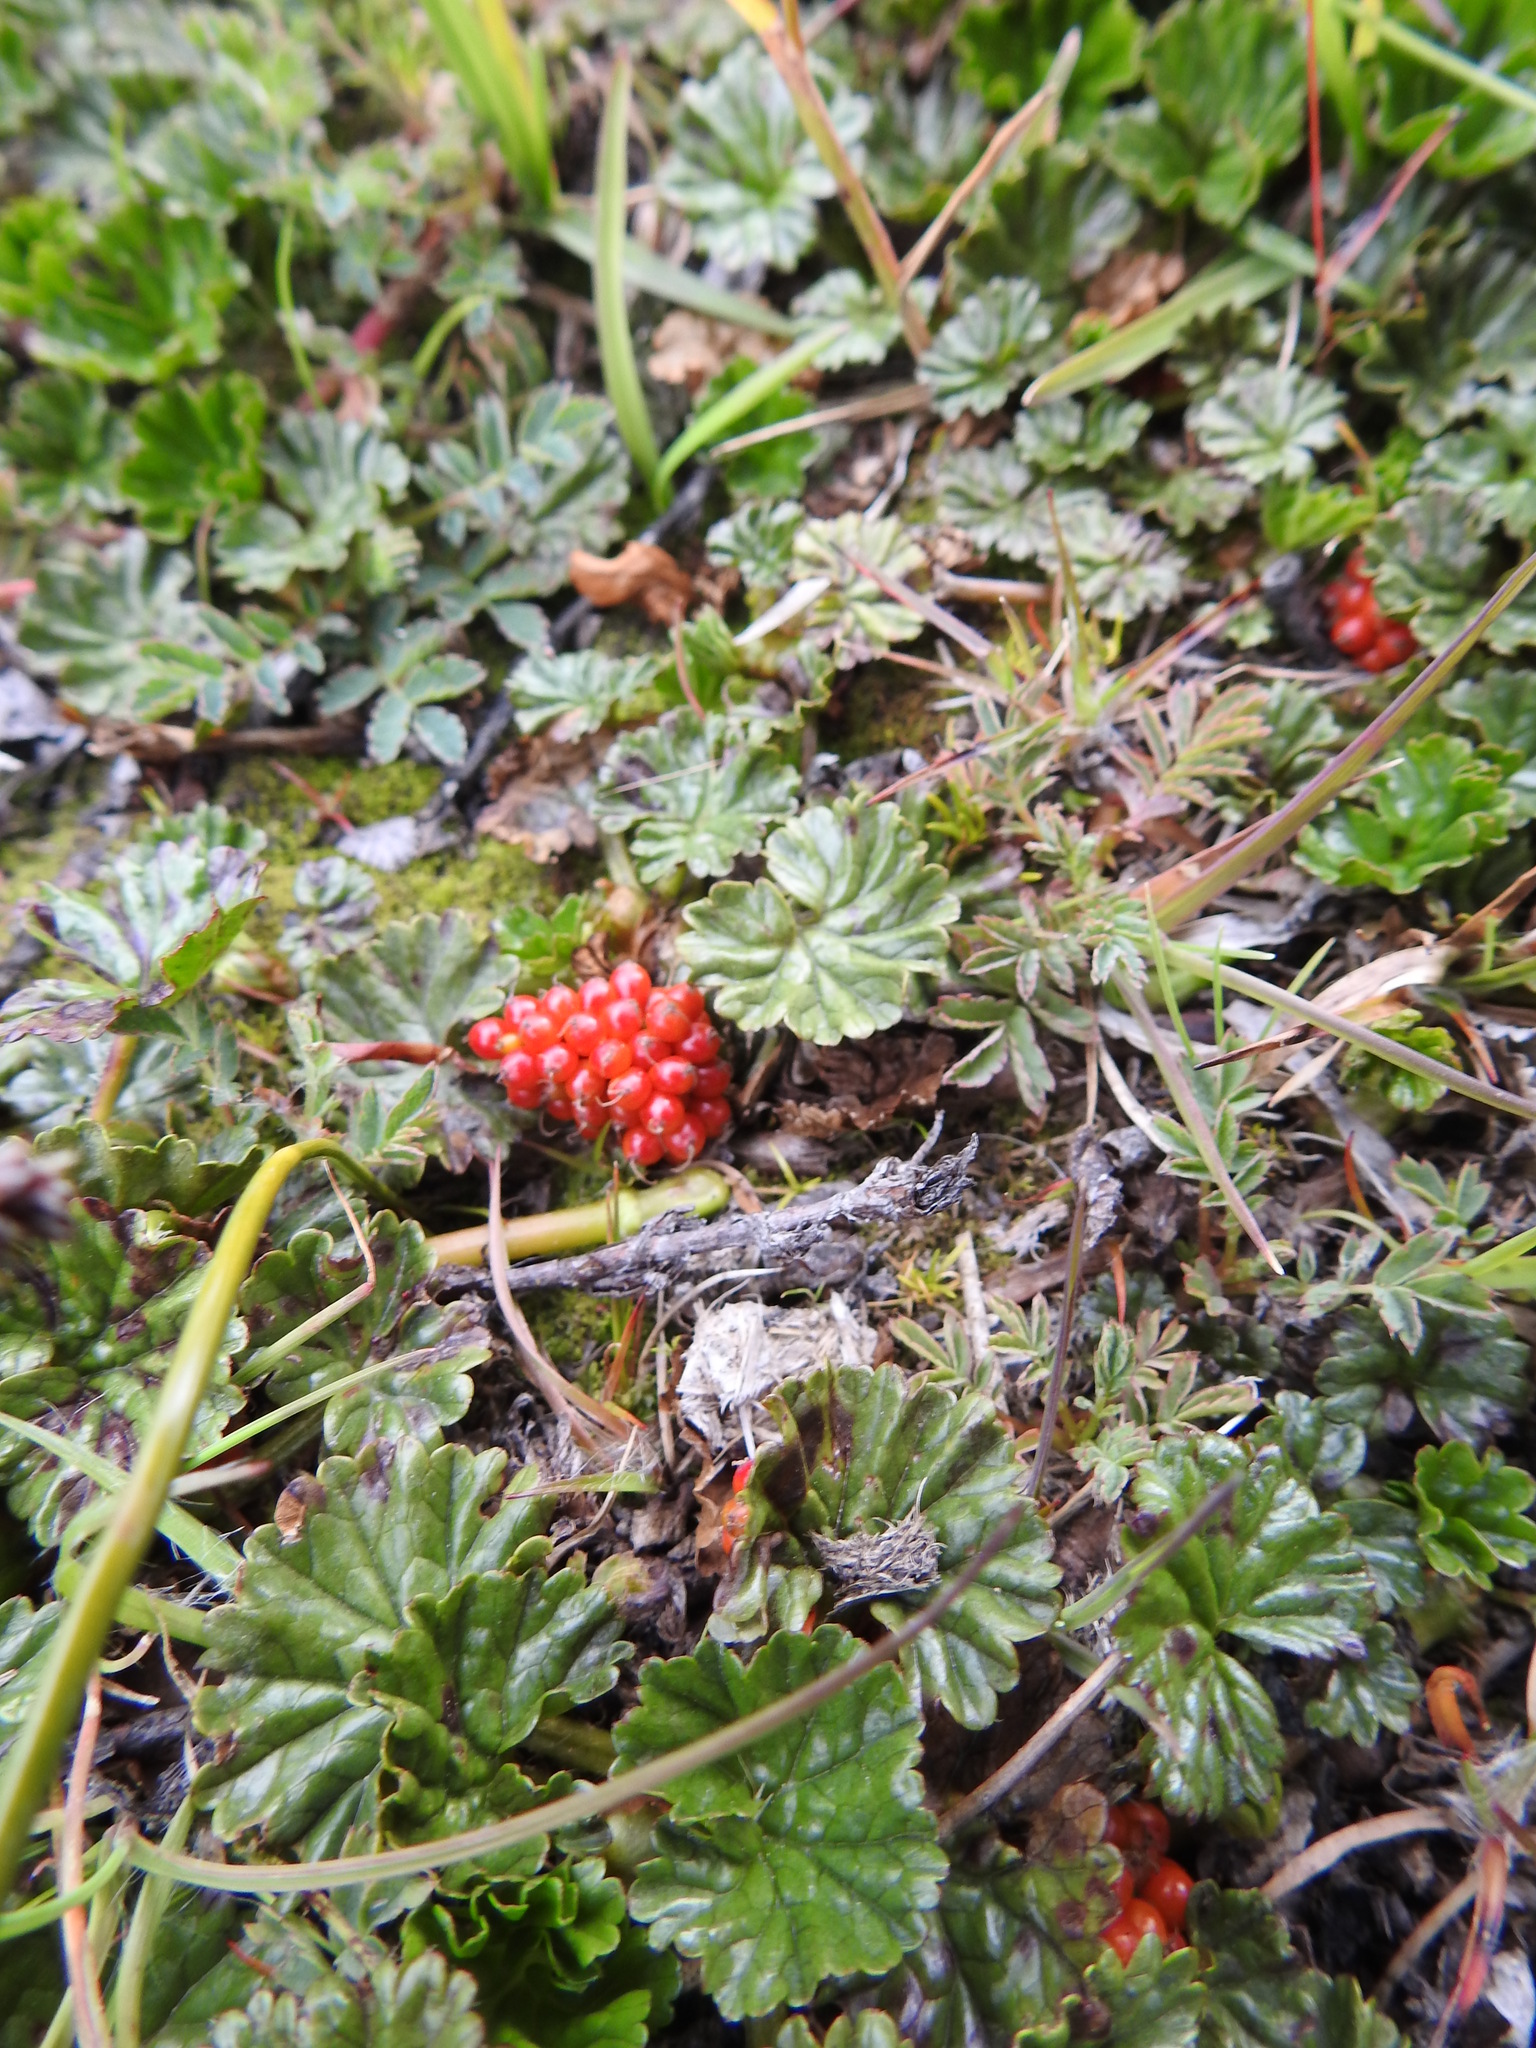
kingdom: Plantae
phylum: Tracheophyta
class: Magnoliopsida
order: Gunnerales
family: Gunneraceae
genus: Gunnera
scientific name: Gunnera magellanica
